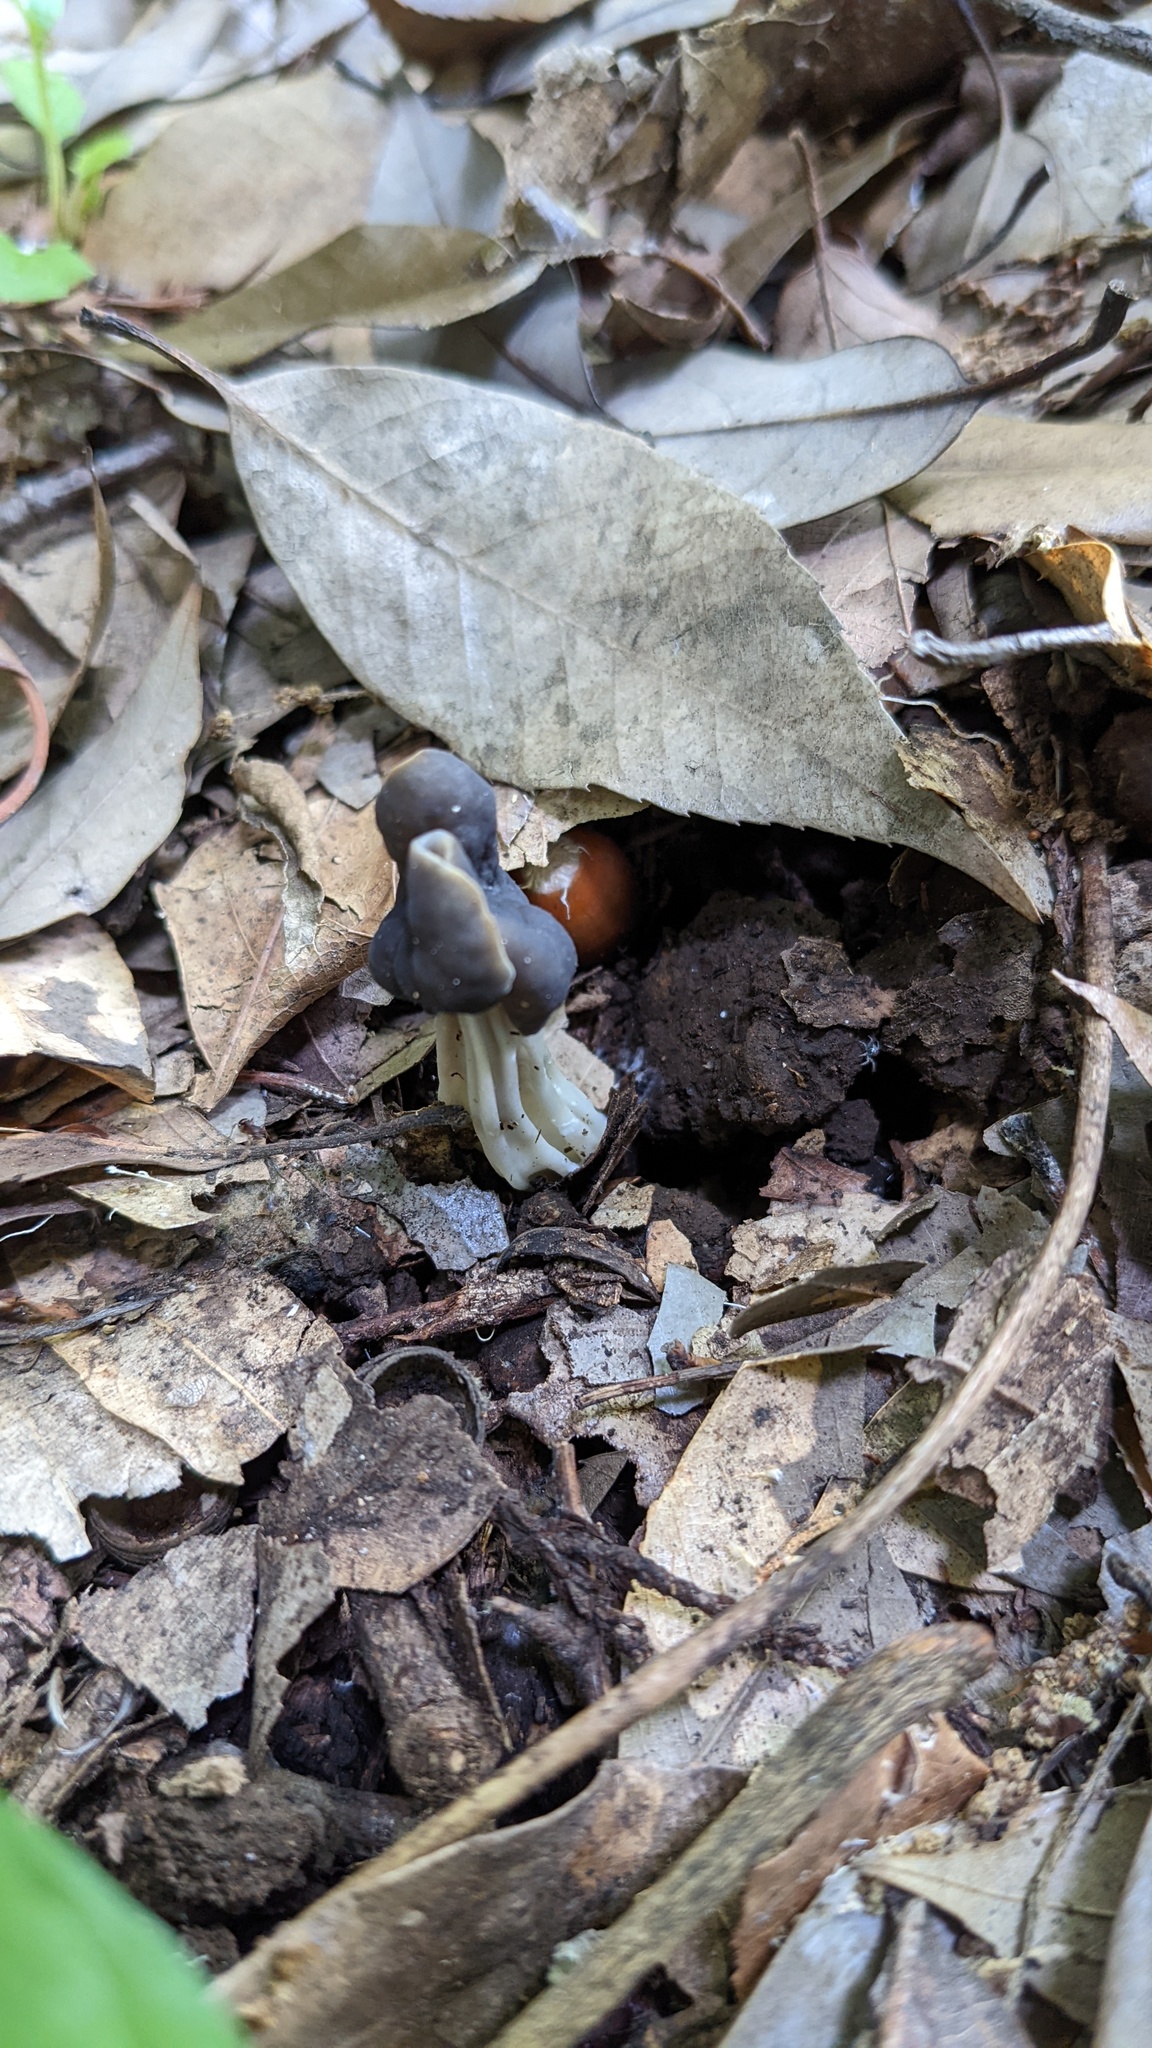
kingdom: Fungi
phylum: Ascomycota
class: Pezizomycetes
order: Pezizales
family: Helvellaceae
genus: Helvella
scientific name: Helvella lacunosa
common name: Elfin saddle
